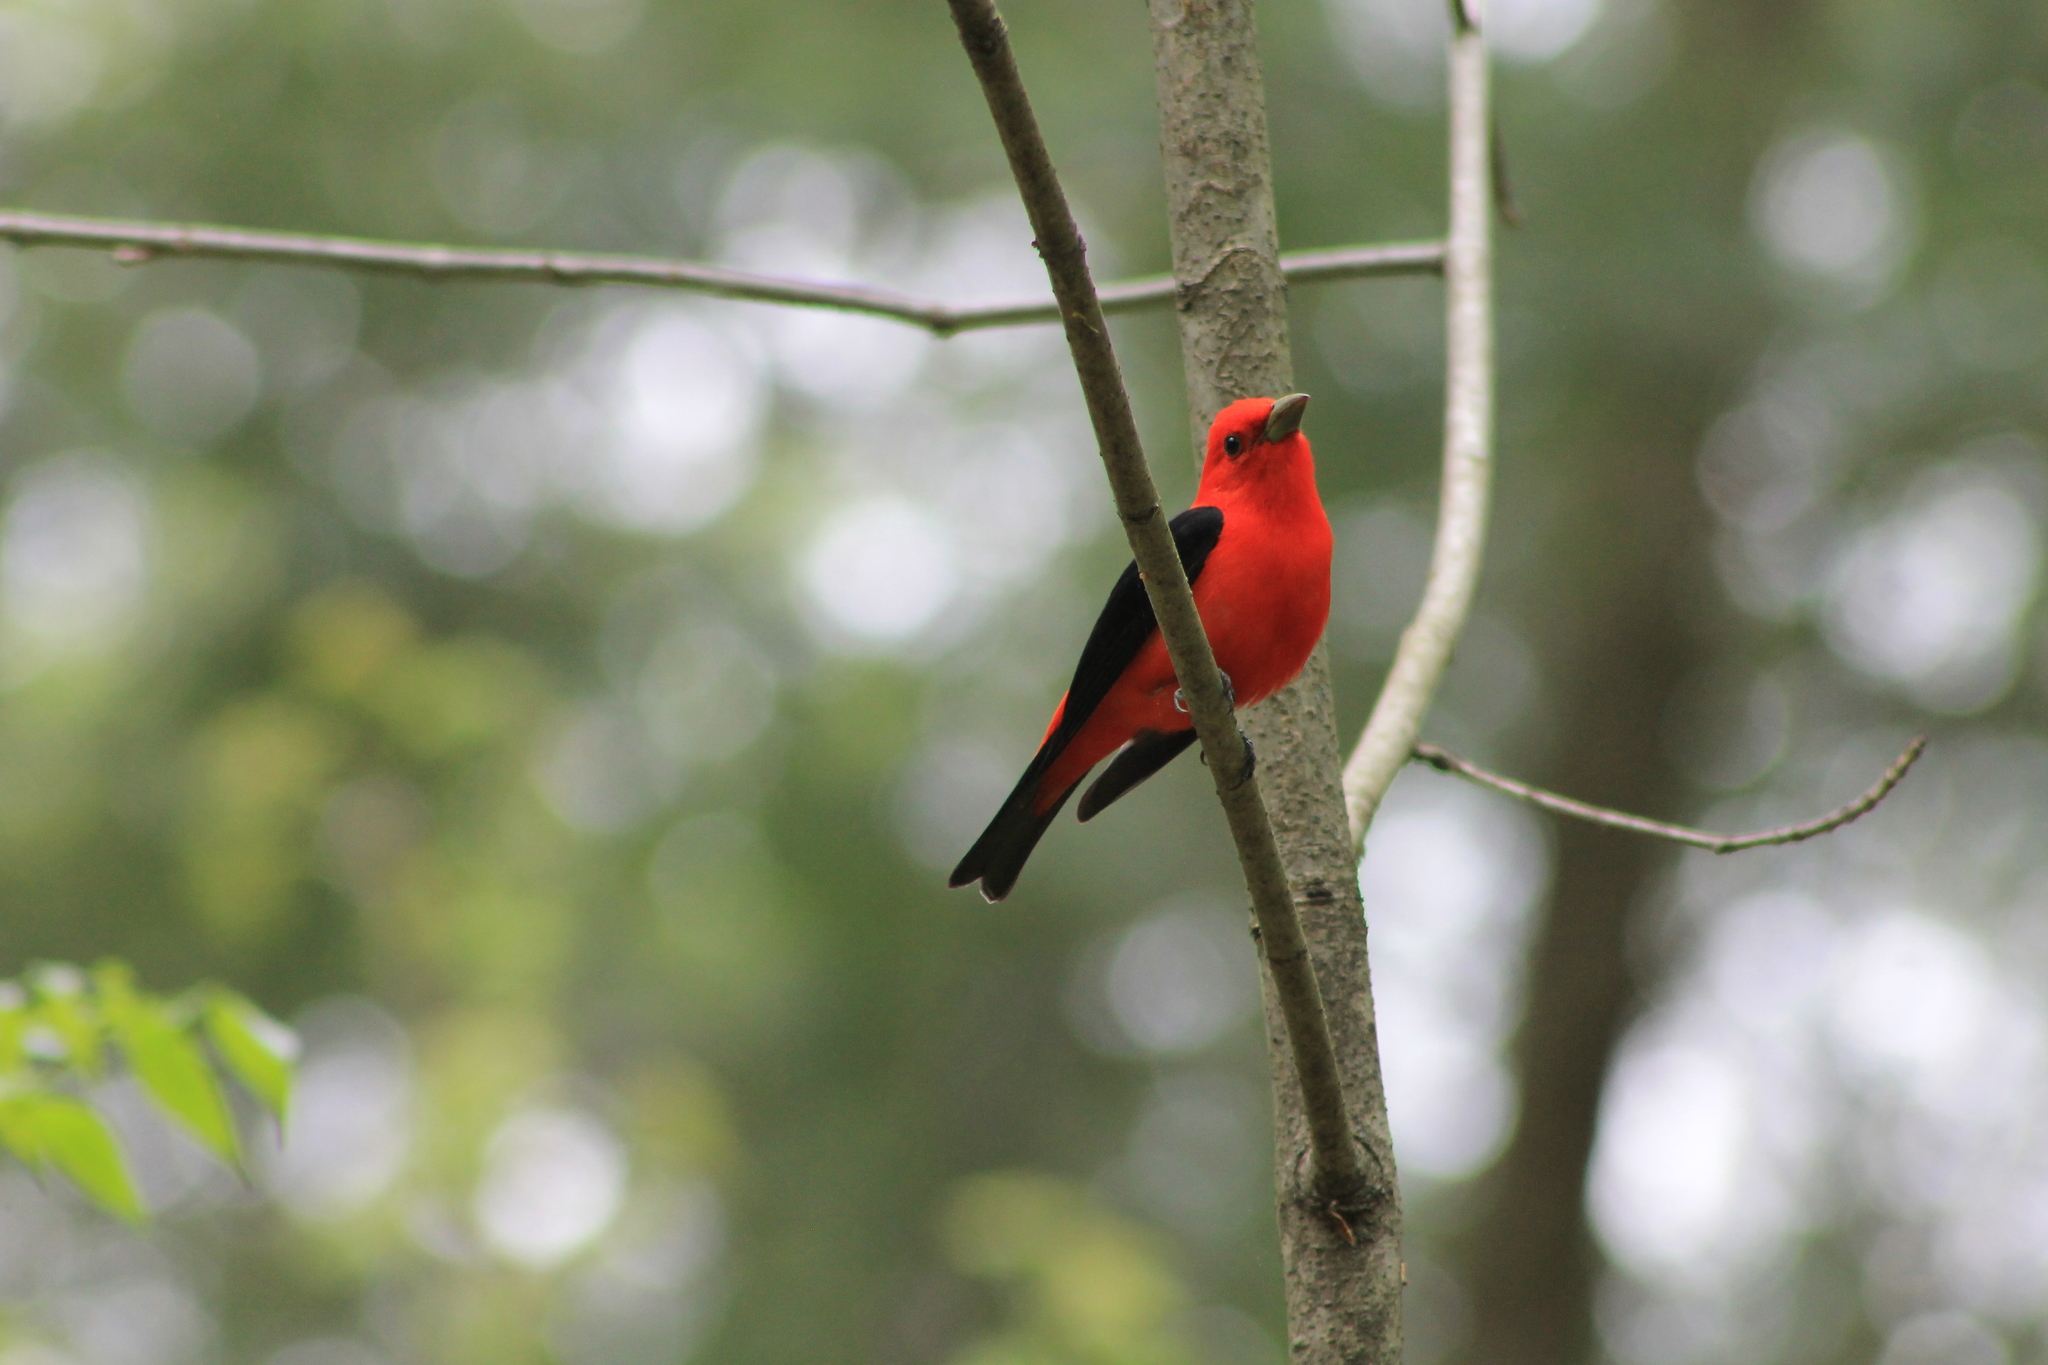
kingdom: Animalia
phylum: Chordata
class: Aves
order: Passeriformes
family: Cardinalidae
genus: Piranga
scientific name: Piranga olivacea
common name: Scarlet tanager
